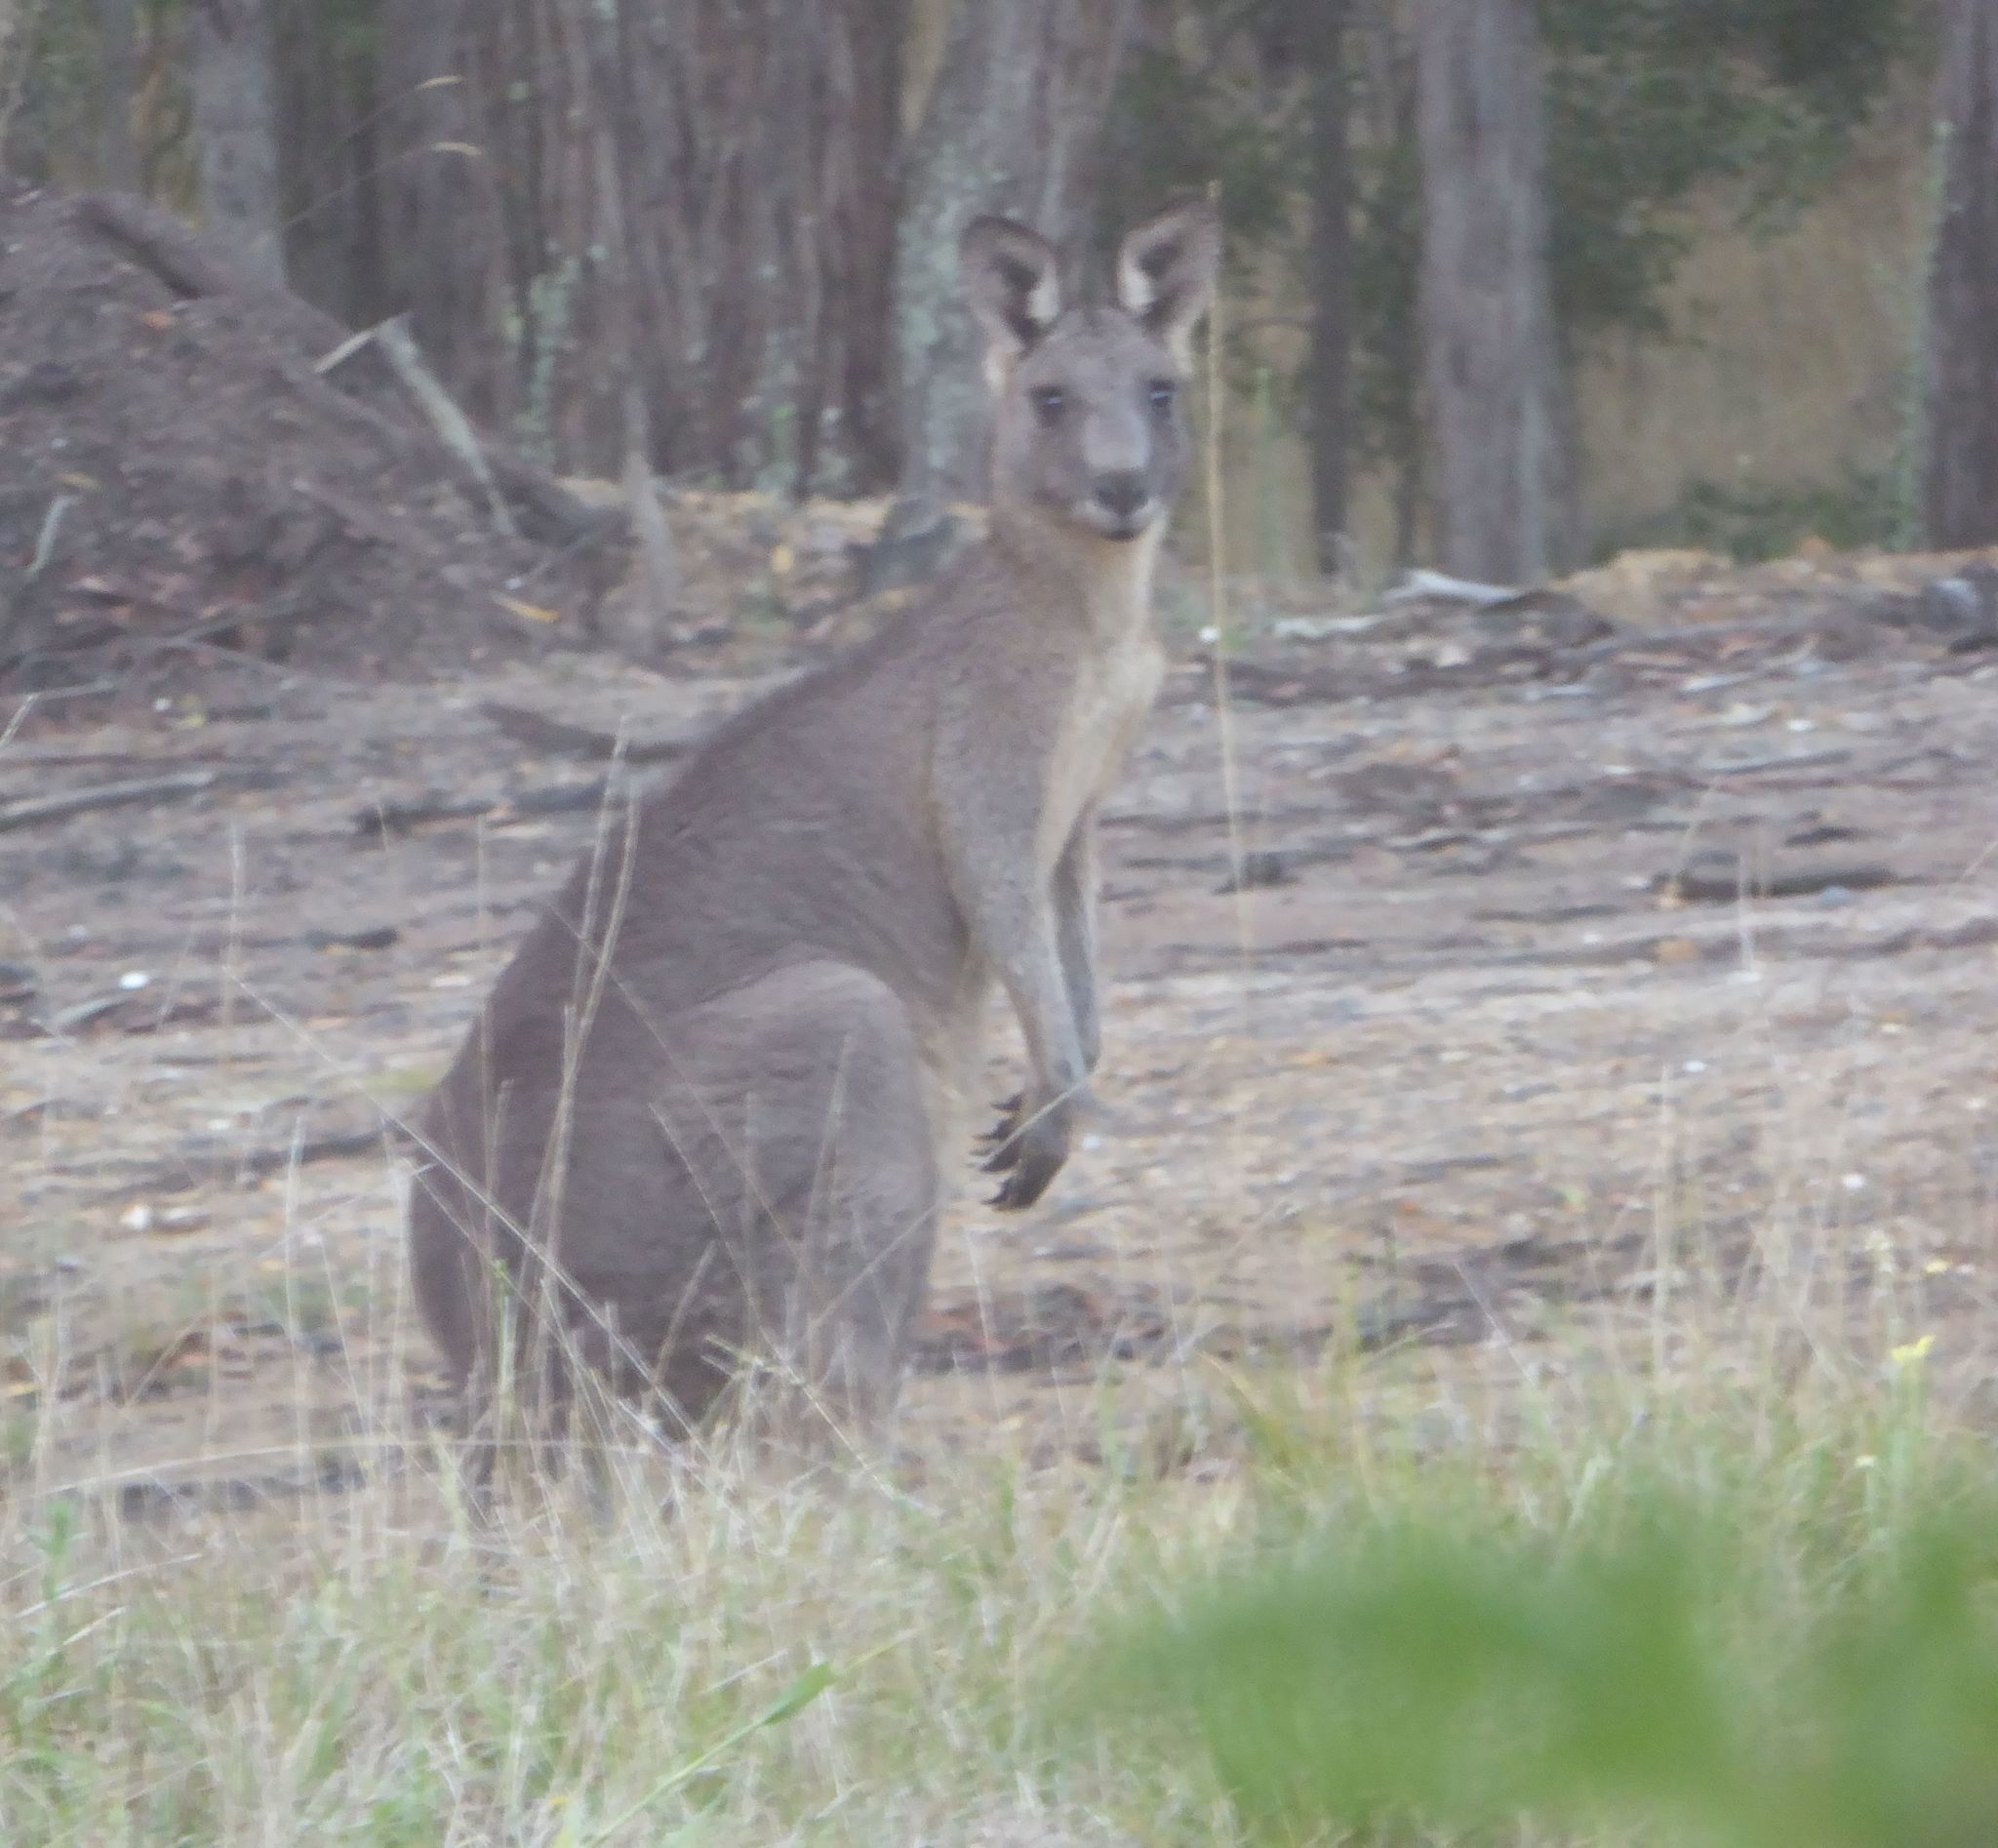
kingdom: Animalia
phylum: Chordata
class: Mammalia
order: Diprotodontia
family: Macropodidae
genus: Macropus
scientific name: Macropus giganteus
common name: Eastern grey kangaroo
